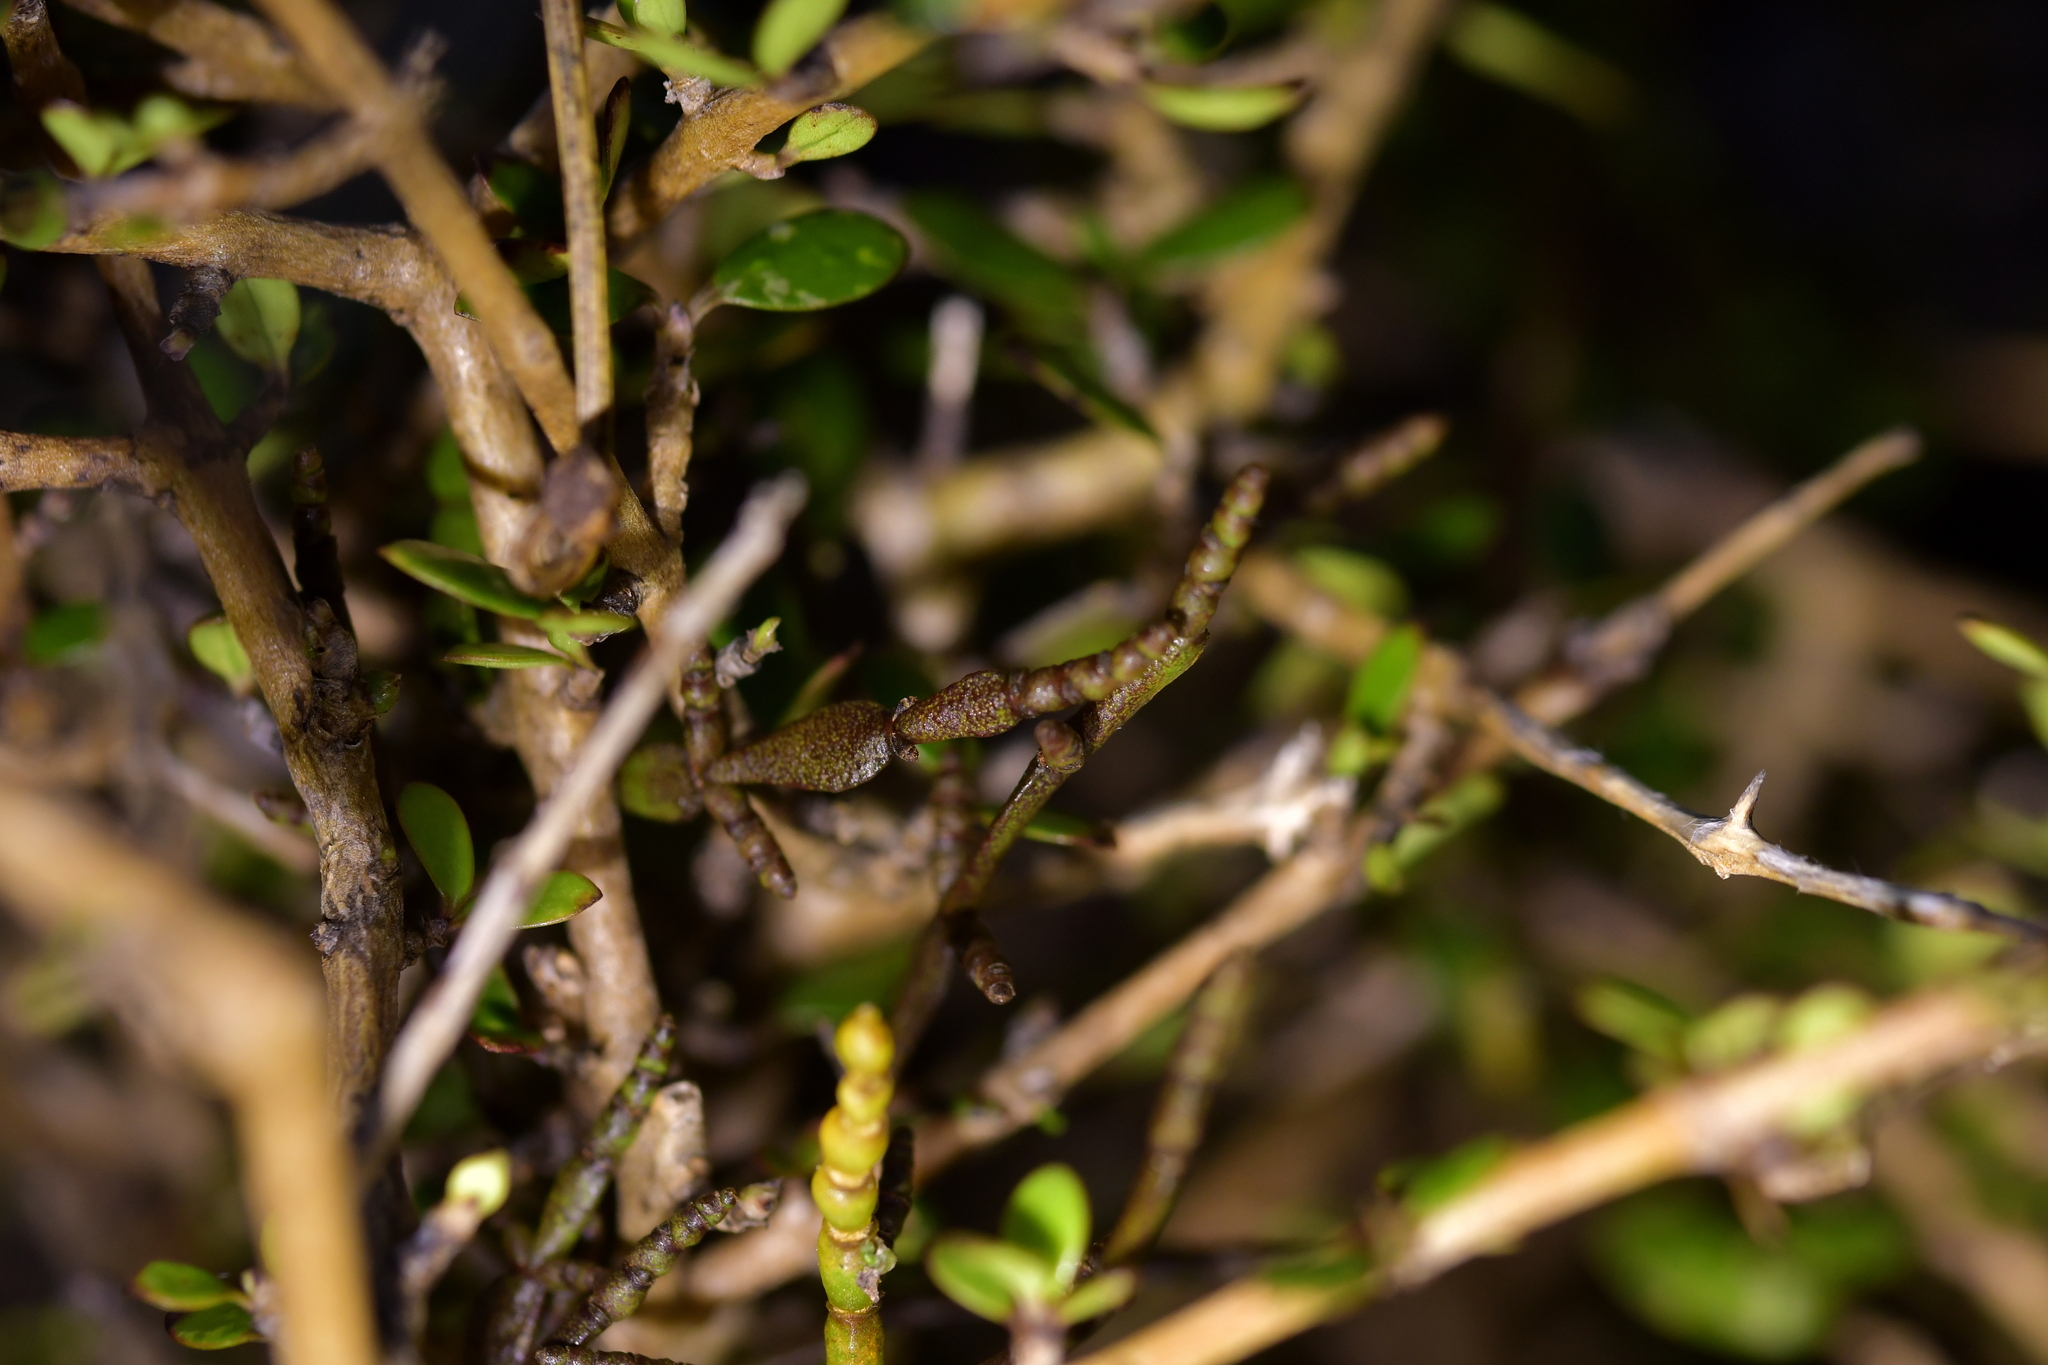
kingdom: Plantae
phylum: Tracheophyta
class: Magnoliopsida
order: Santalales
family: Viscaceae
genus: Korthalsella
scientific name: Korthalsella clavata
